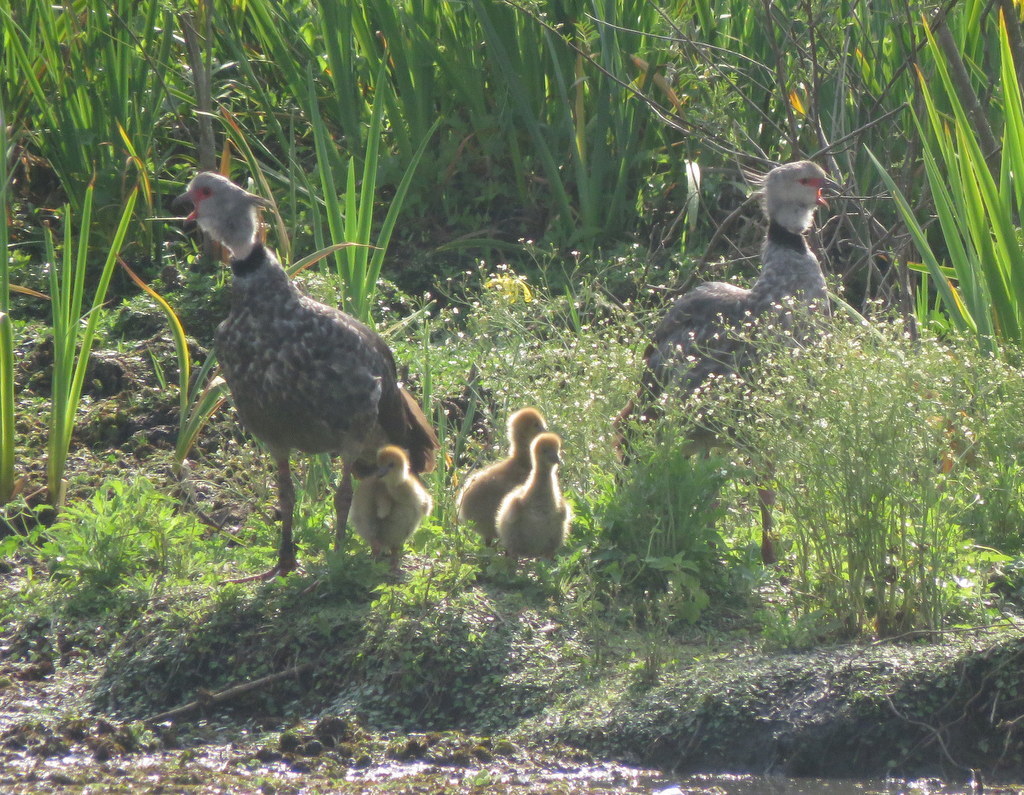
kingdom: Animalia
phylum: Chordata
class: Aves
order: Anseriformes
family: Anhimidae
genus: Chauna
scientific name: Chauna torquata
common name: Southern screamer
